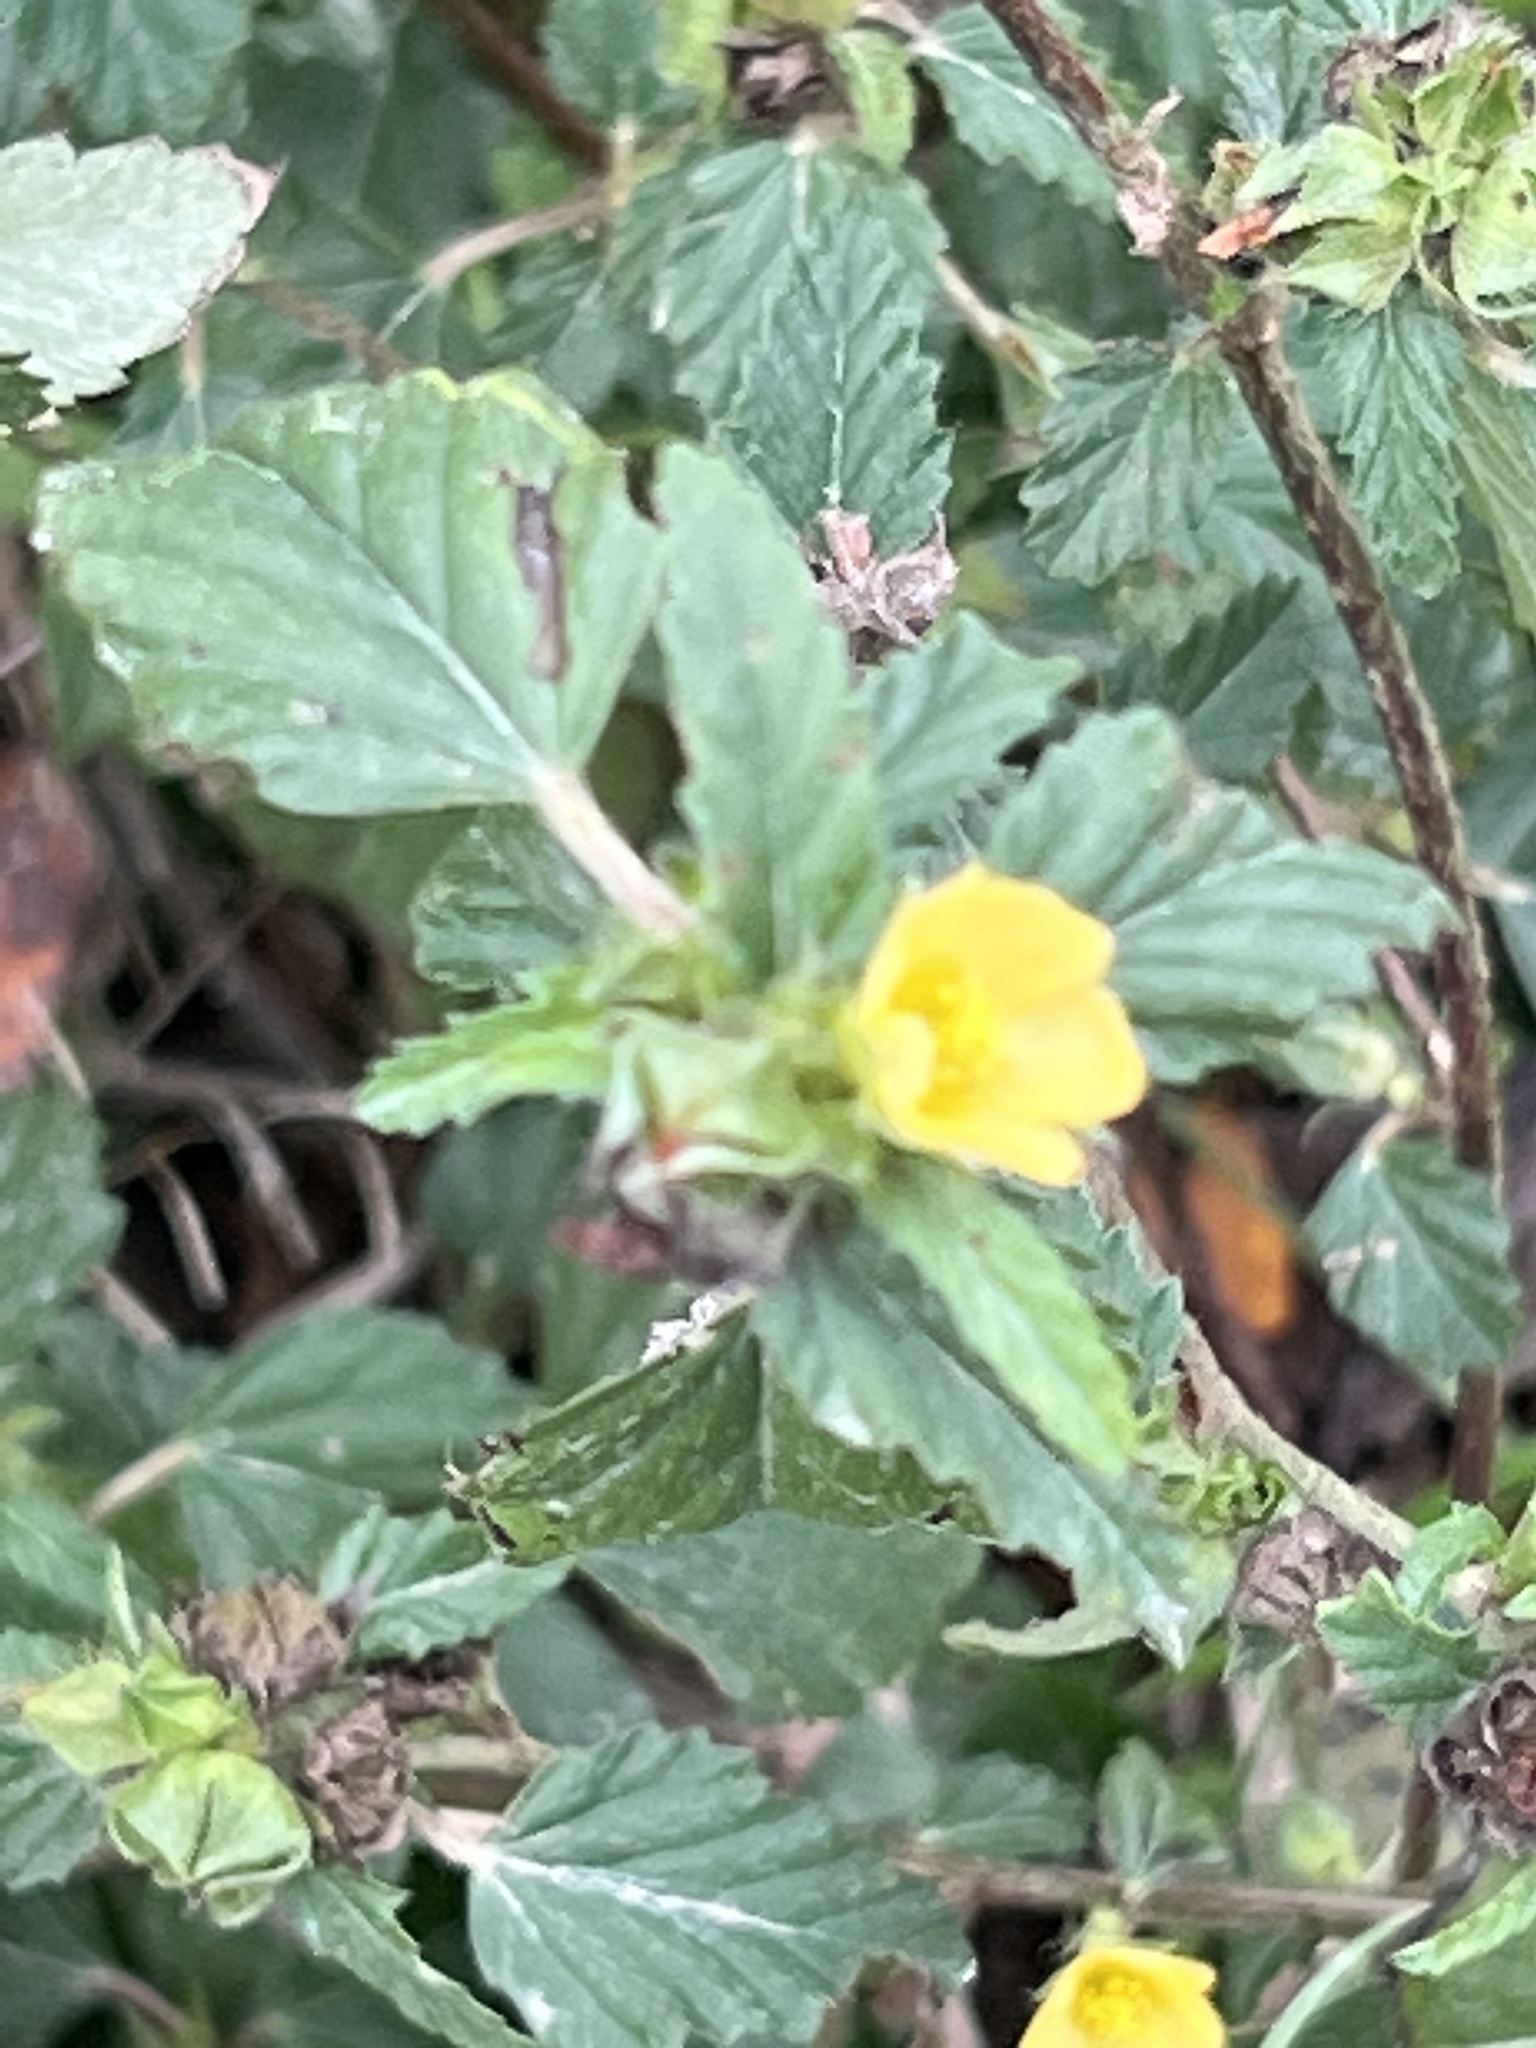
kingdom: Plantae
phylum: Tracheophyta
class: Magnoliopsida
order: Malvales
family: Malvaceae
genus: Malvastrum
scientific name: Malvastrum coromandelianum
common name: Threelobe false mallow
